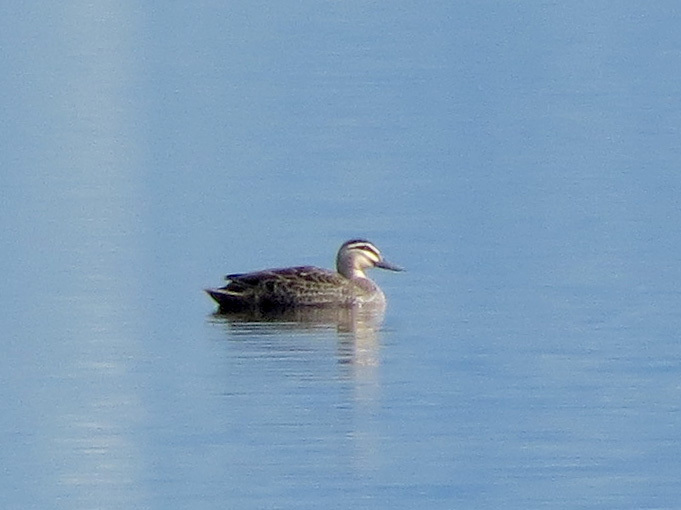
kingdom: Animalia
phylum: Chordata
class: Aves
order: Anseriformes
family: Anatidae
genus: Anas
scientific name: Anas superciliosa
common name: Pacific black duck
